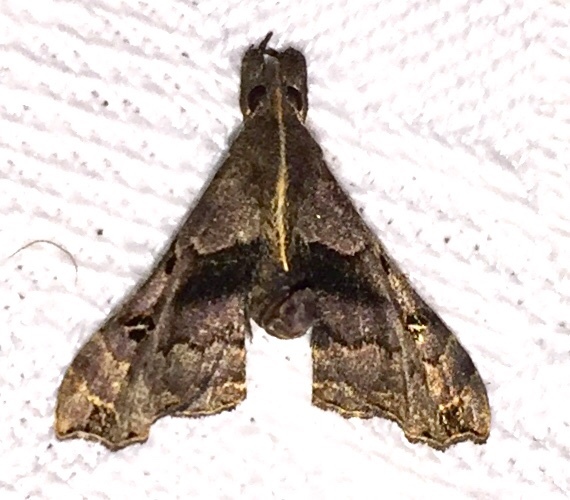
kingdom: Animalia
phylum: Arthropoda
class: Insecta
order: Lepidoptera
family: Erebidae
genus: Palthis
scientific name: Palthis asopialis
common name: Faint-spotted palthis moth
